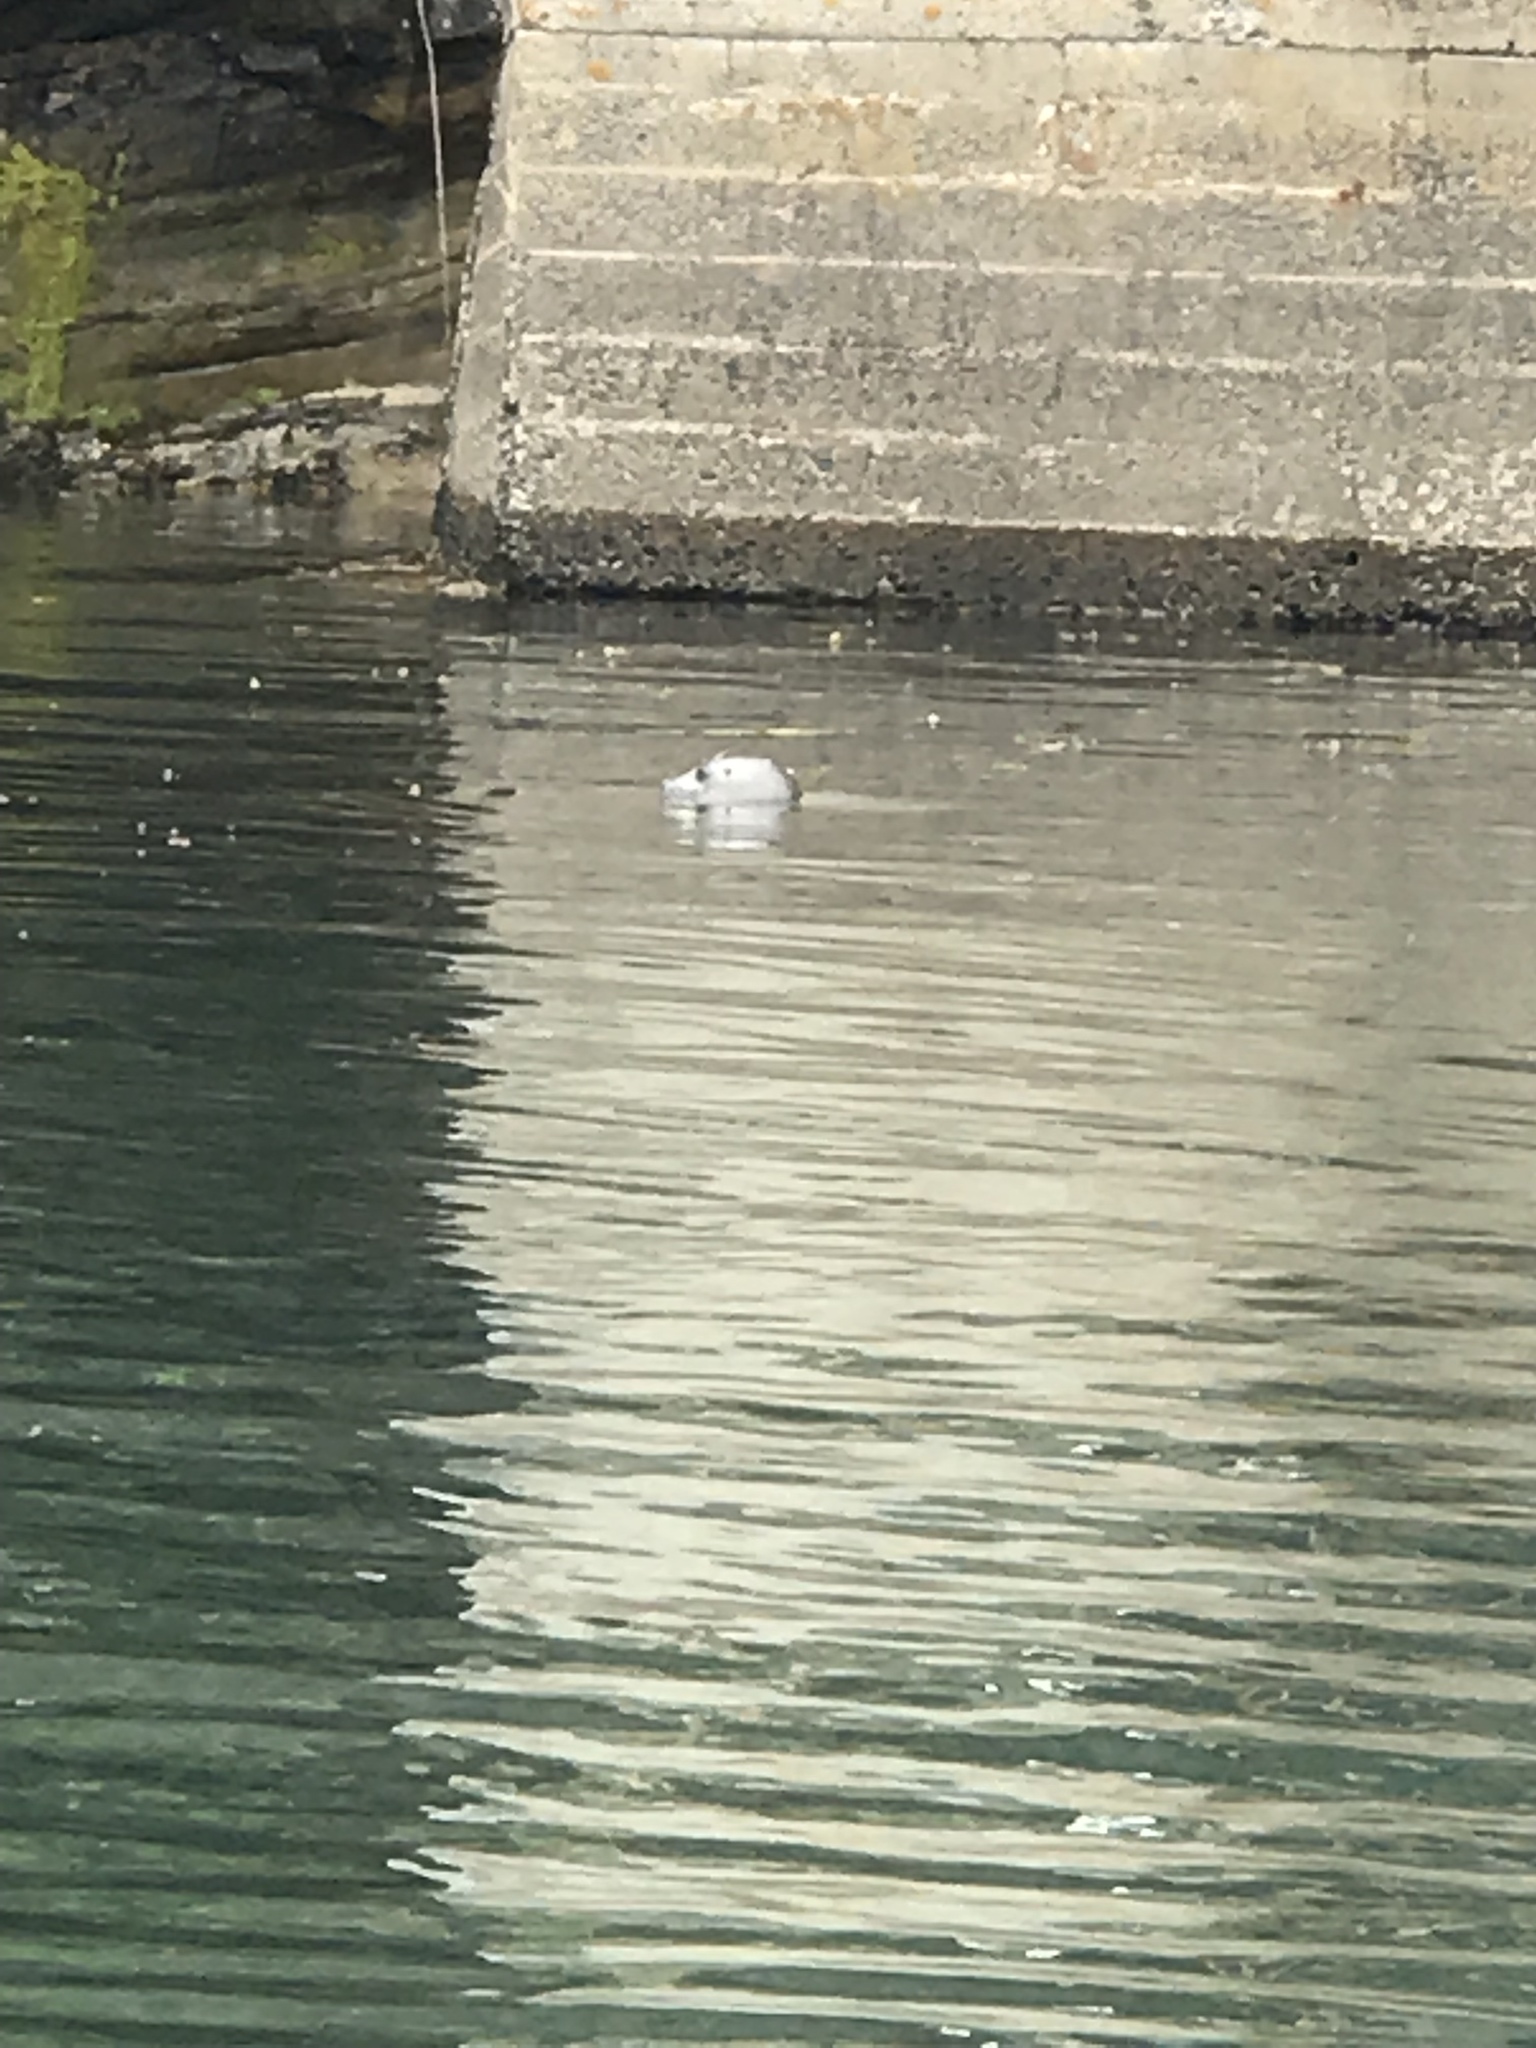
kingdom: Animalia
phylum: Chordata
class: Mammalia
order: Carnivora
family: Phocidae
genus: Phoca
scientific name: Phoca vitulina
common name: Harbor seal
